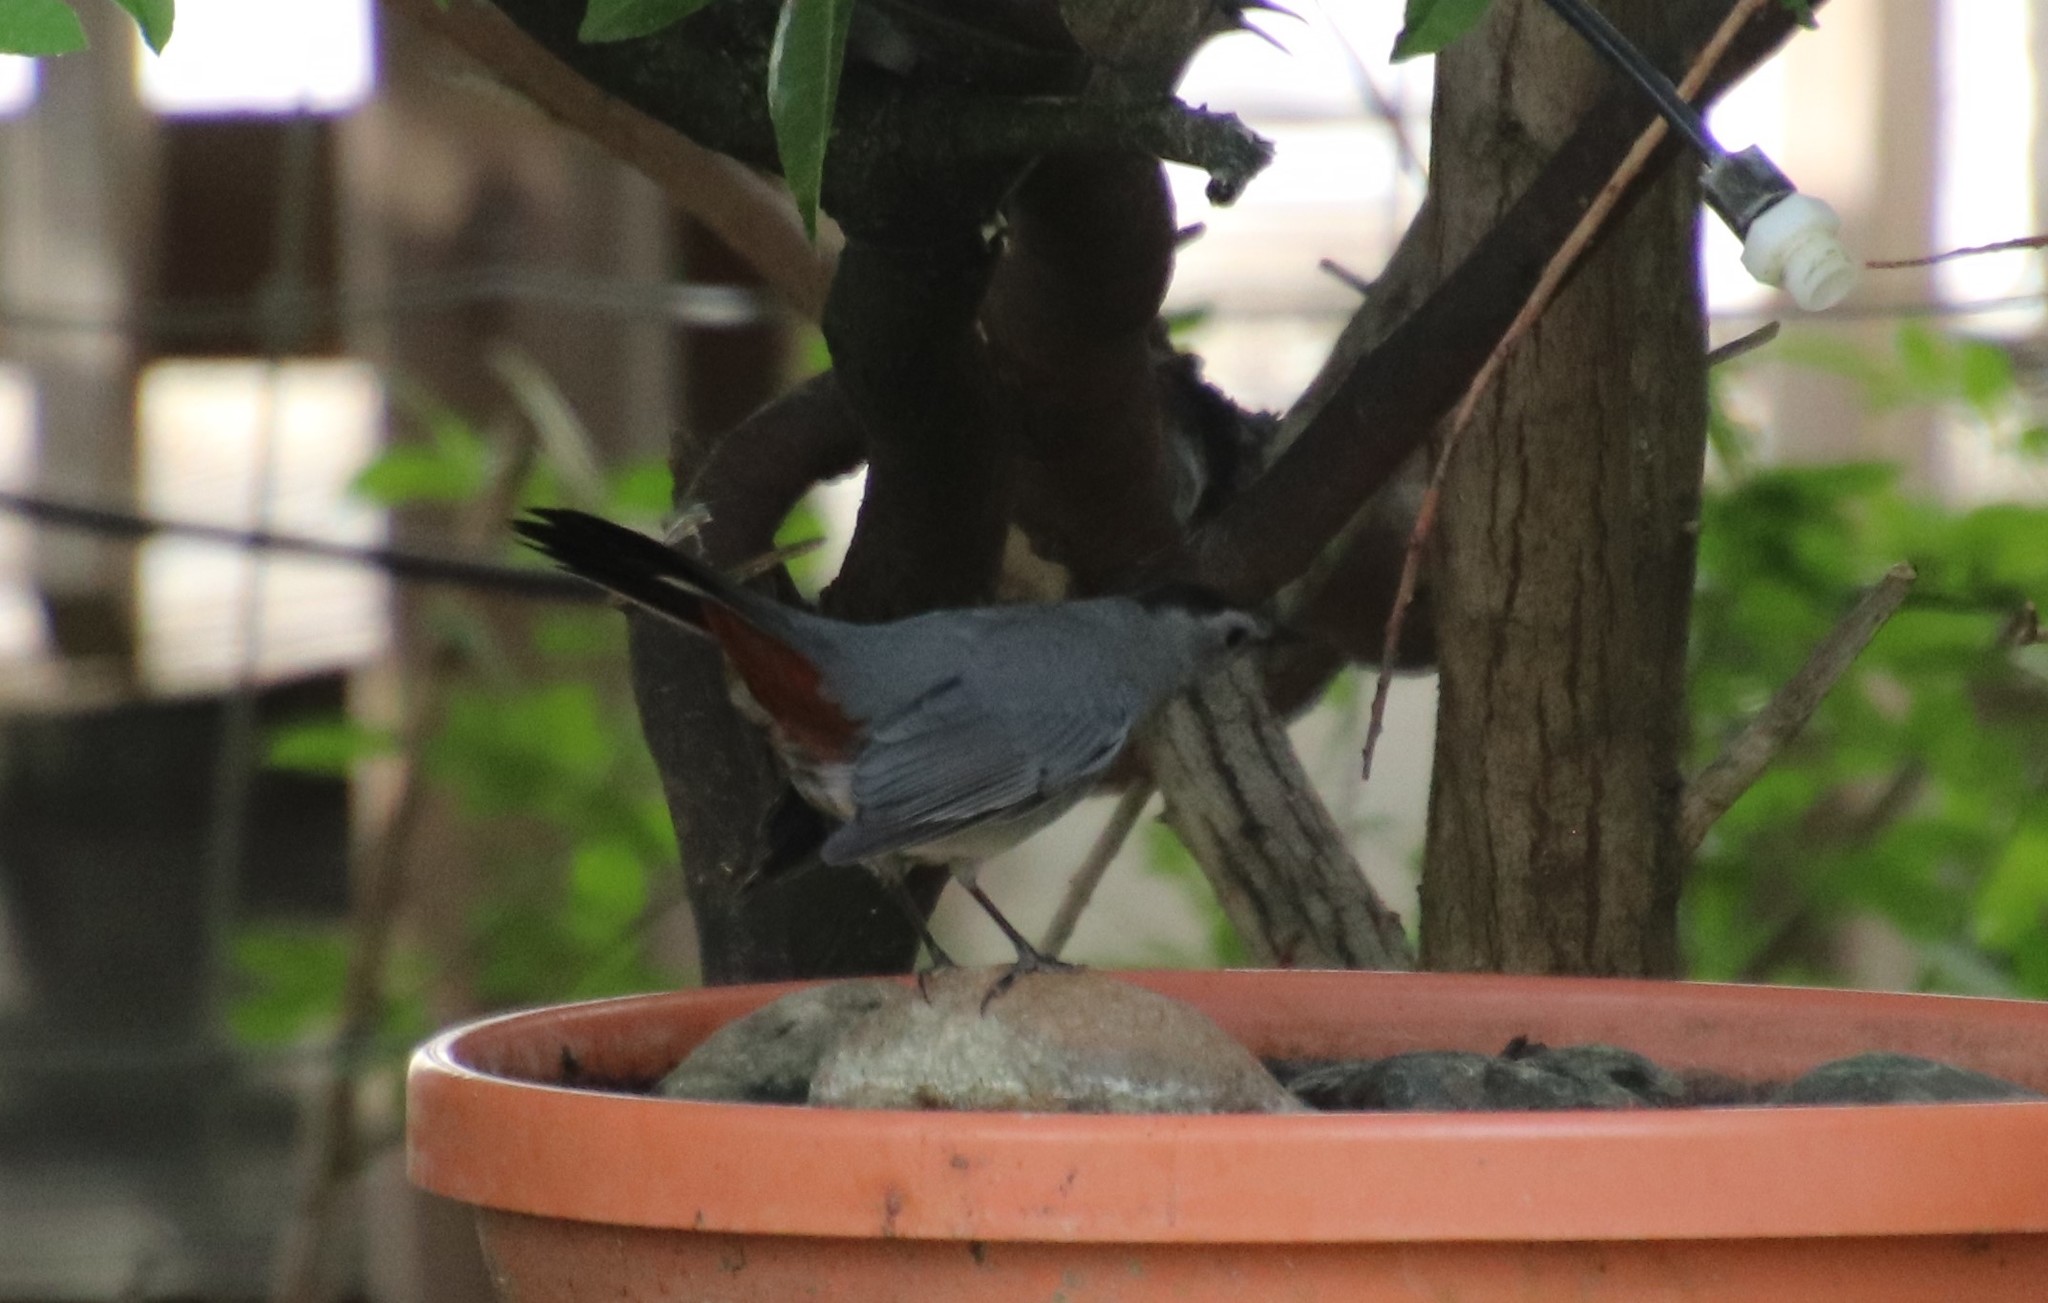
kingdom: Animalia
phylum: Chordata
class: Aves
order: Passeriformes
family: Mimidae
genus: Dumetella
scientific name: Dumetella carolinensis
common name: Gray catbird
